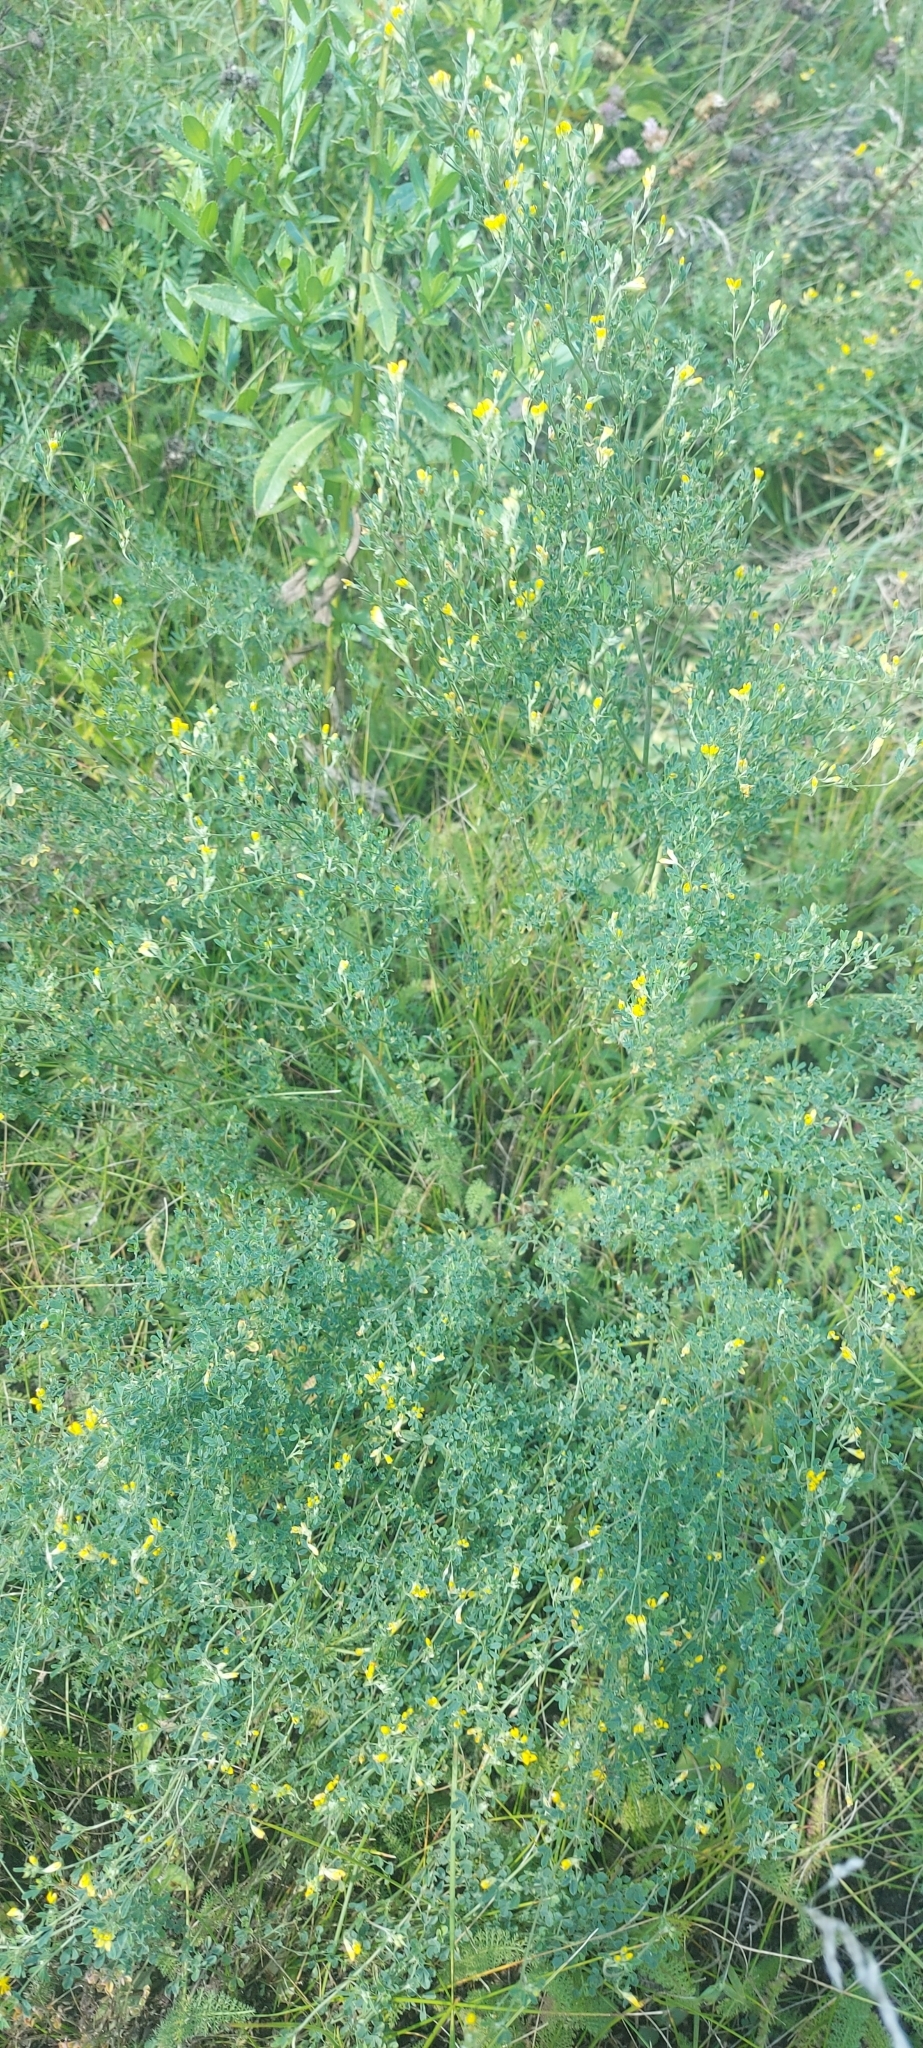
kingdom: Plantae
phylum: Tracheophyta
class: Magnoliopsida
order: Fabales
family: Fabaceae
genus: Medicago
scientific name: Medicago falcata
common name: Sickle medick
